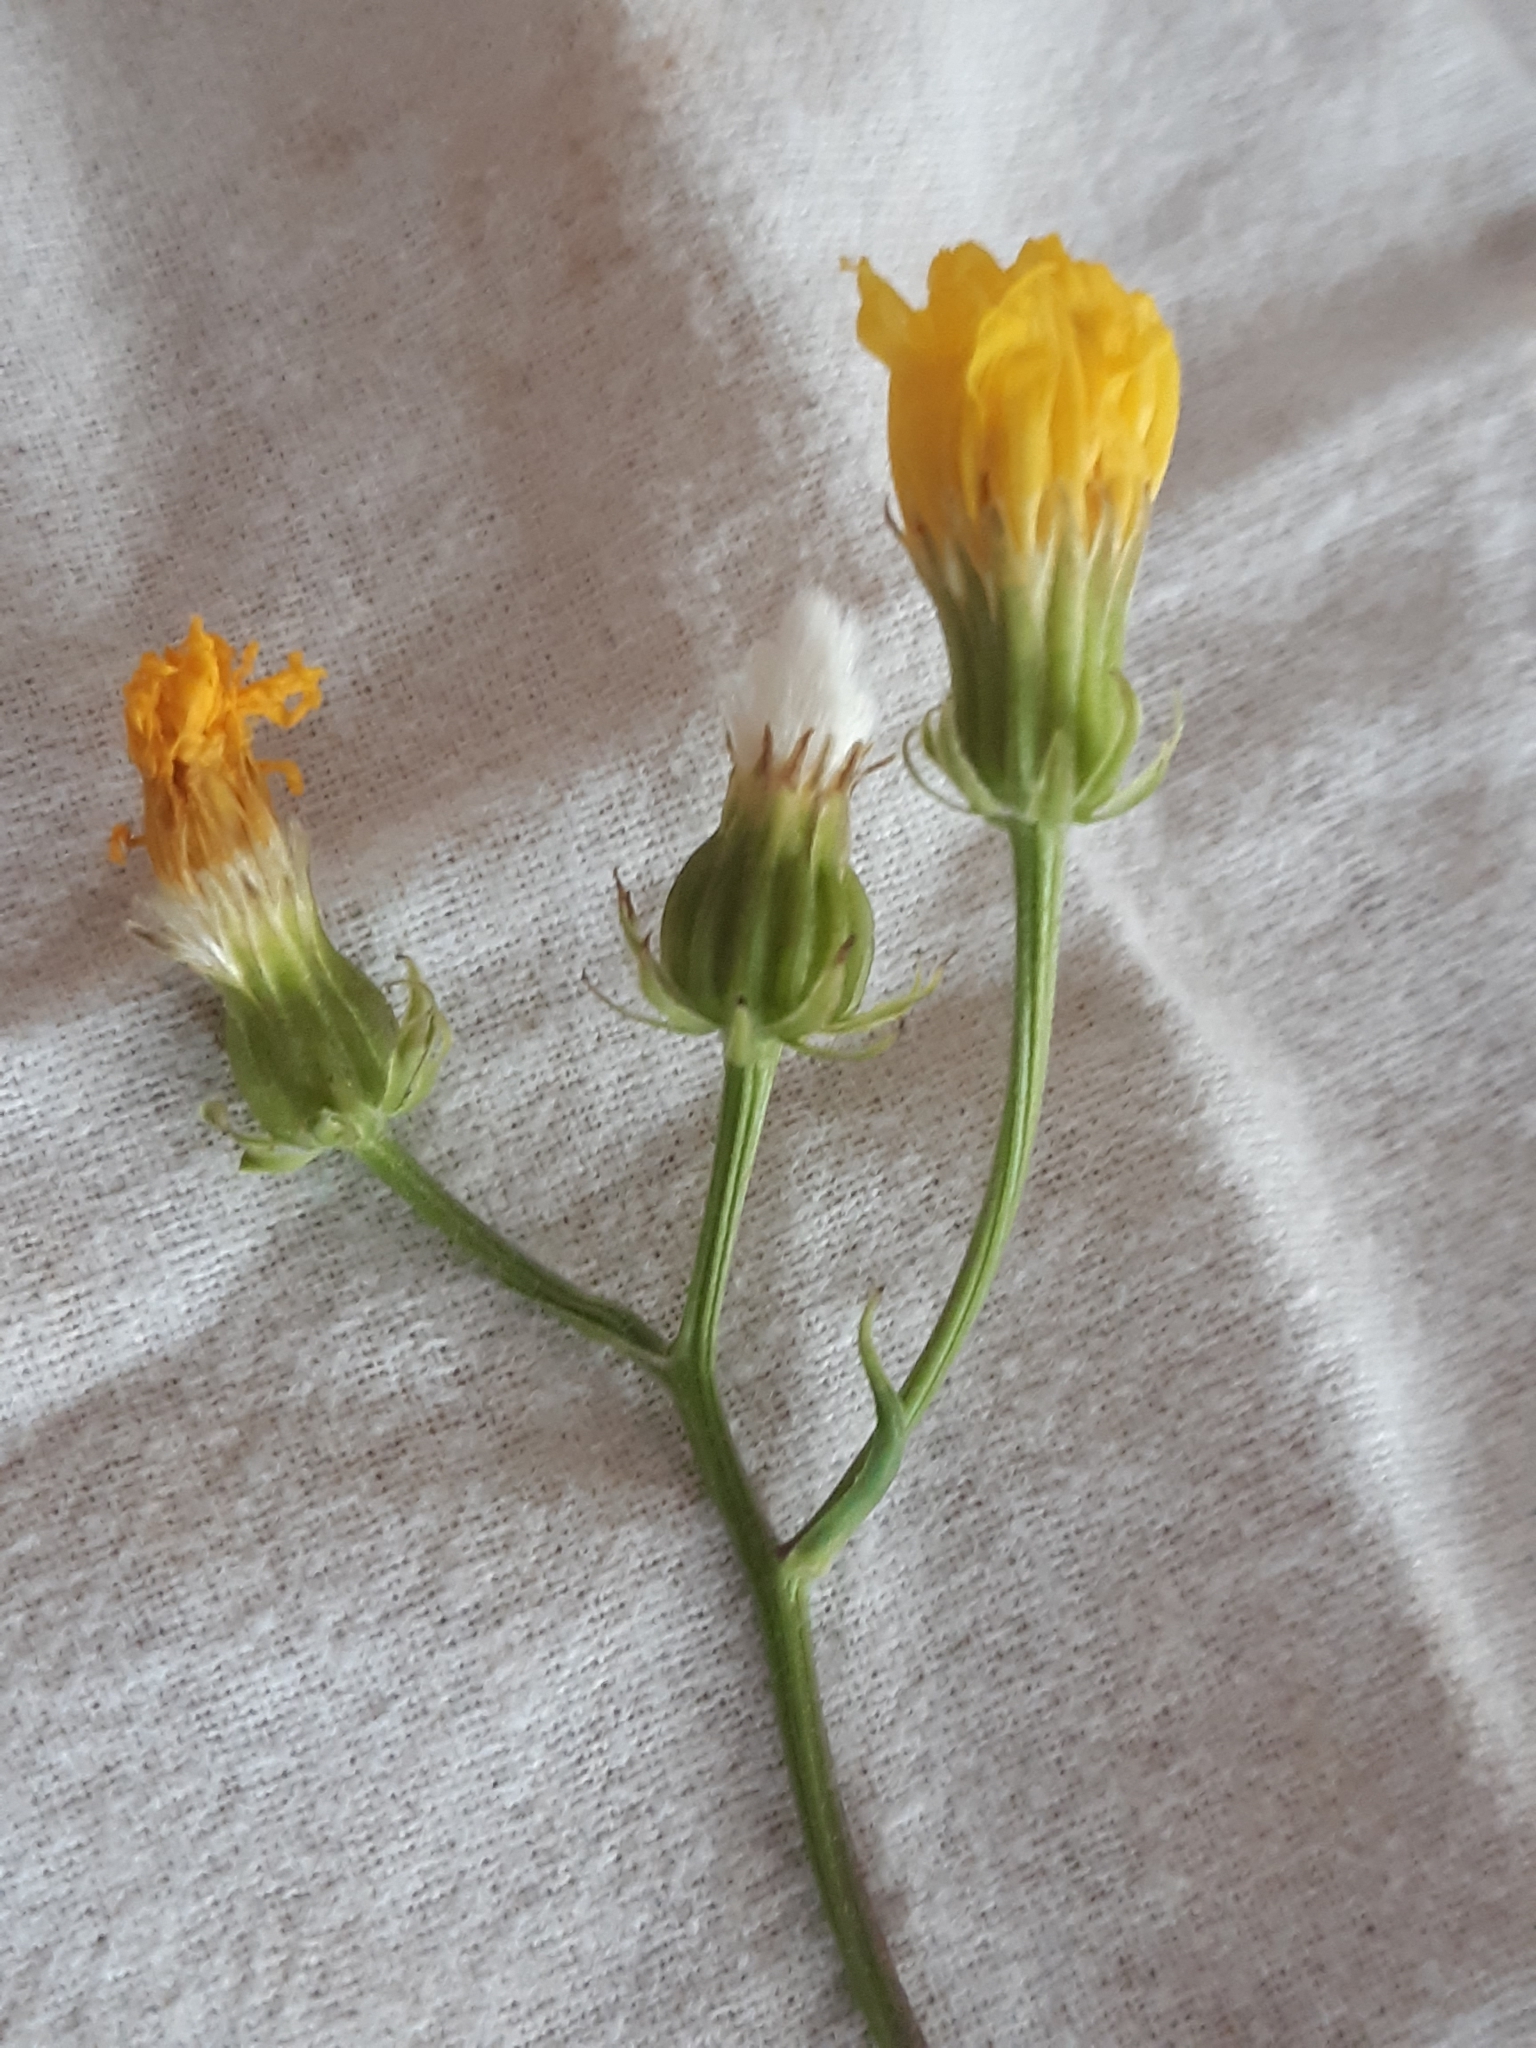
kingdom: Plantae
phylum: Tracheophyta
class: Magnoliopsida
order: Asterales
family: Asteraceae
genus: Crepis
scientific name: Crepis biennis
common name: Rough hawk's-beard
